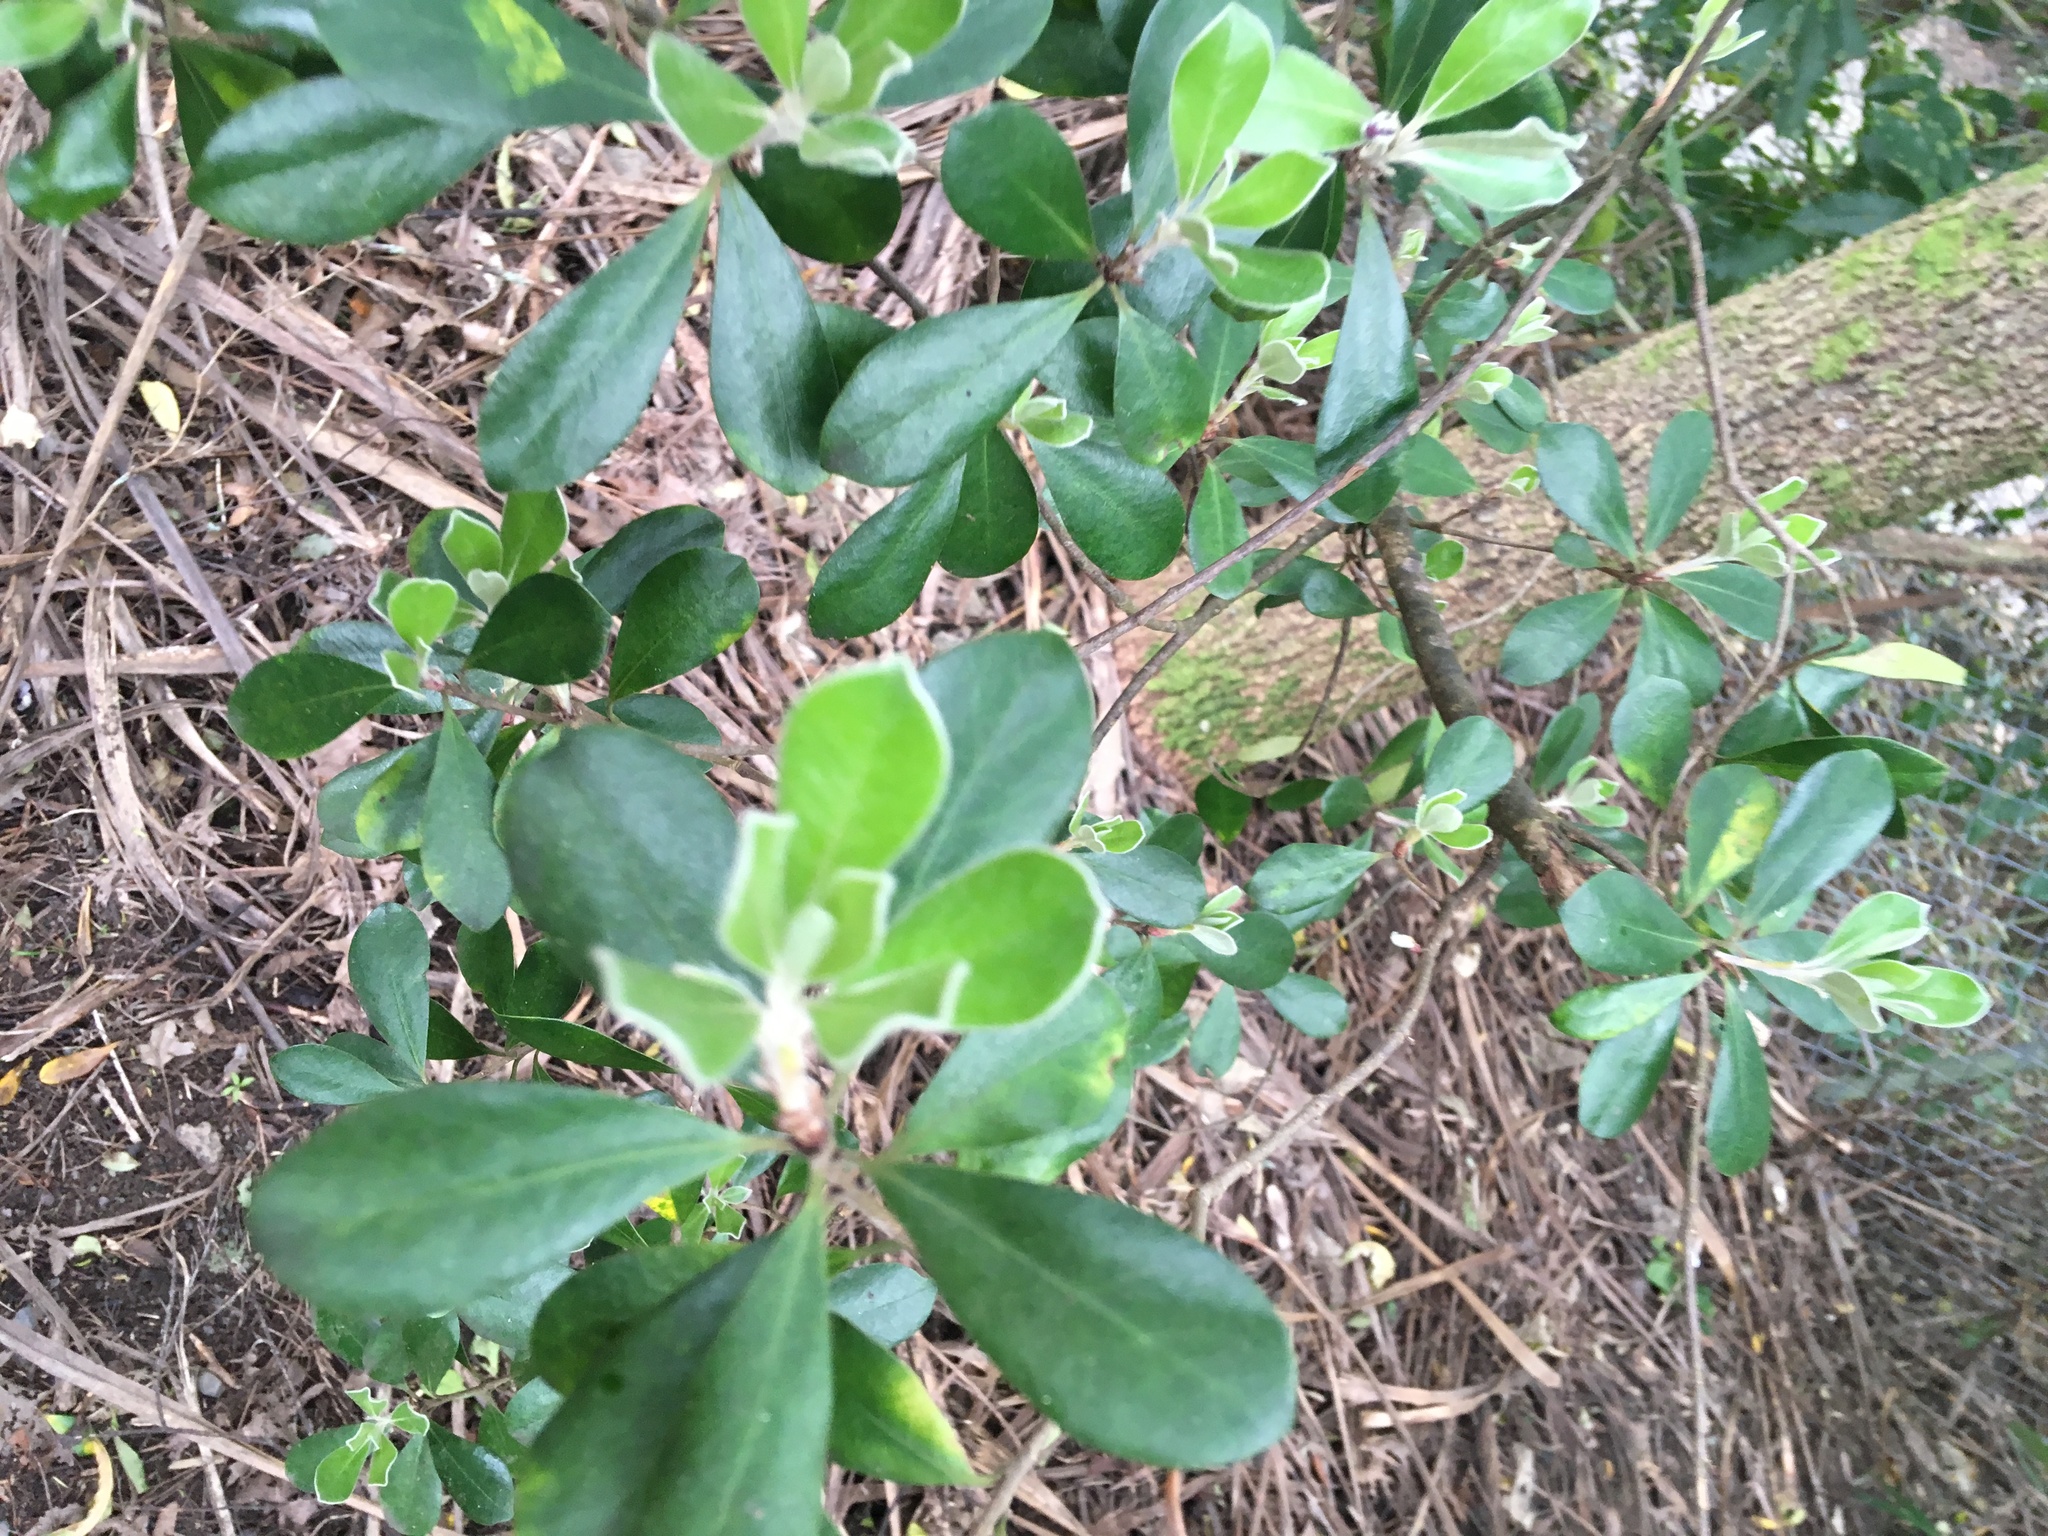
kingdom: Plantae
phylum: Tracheophyta
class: Magnoliopsida
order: Apiales
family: Pittosporaceae
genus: Pittosporum
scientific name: Pittosporum crassifolium
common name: Karo
